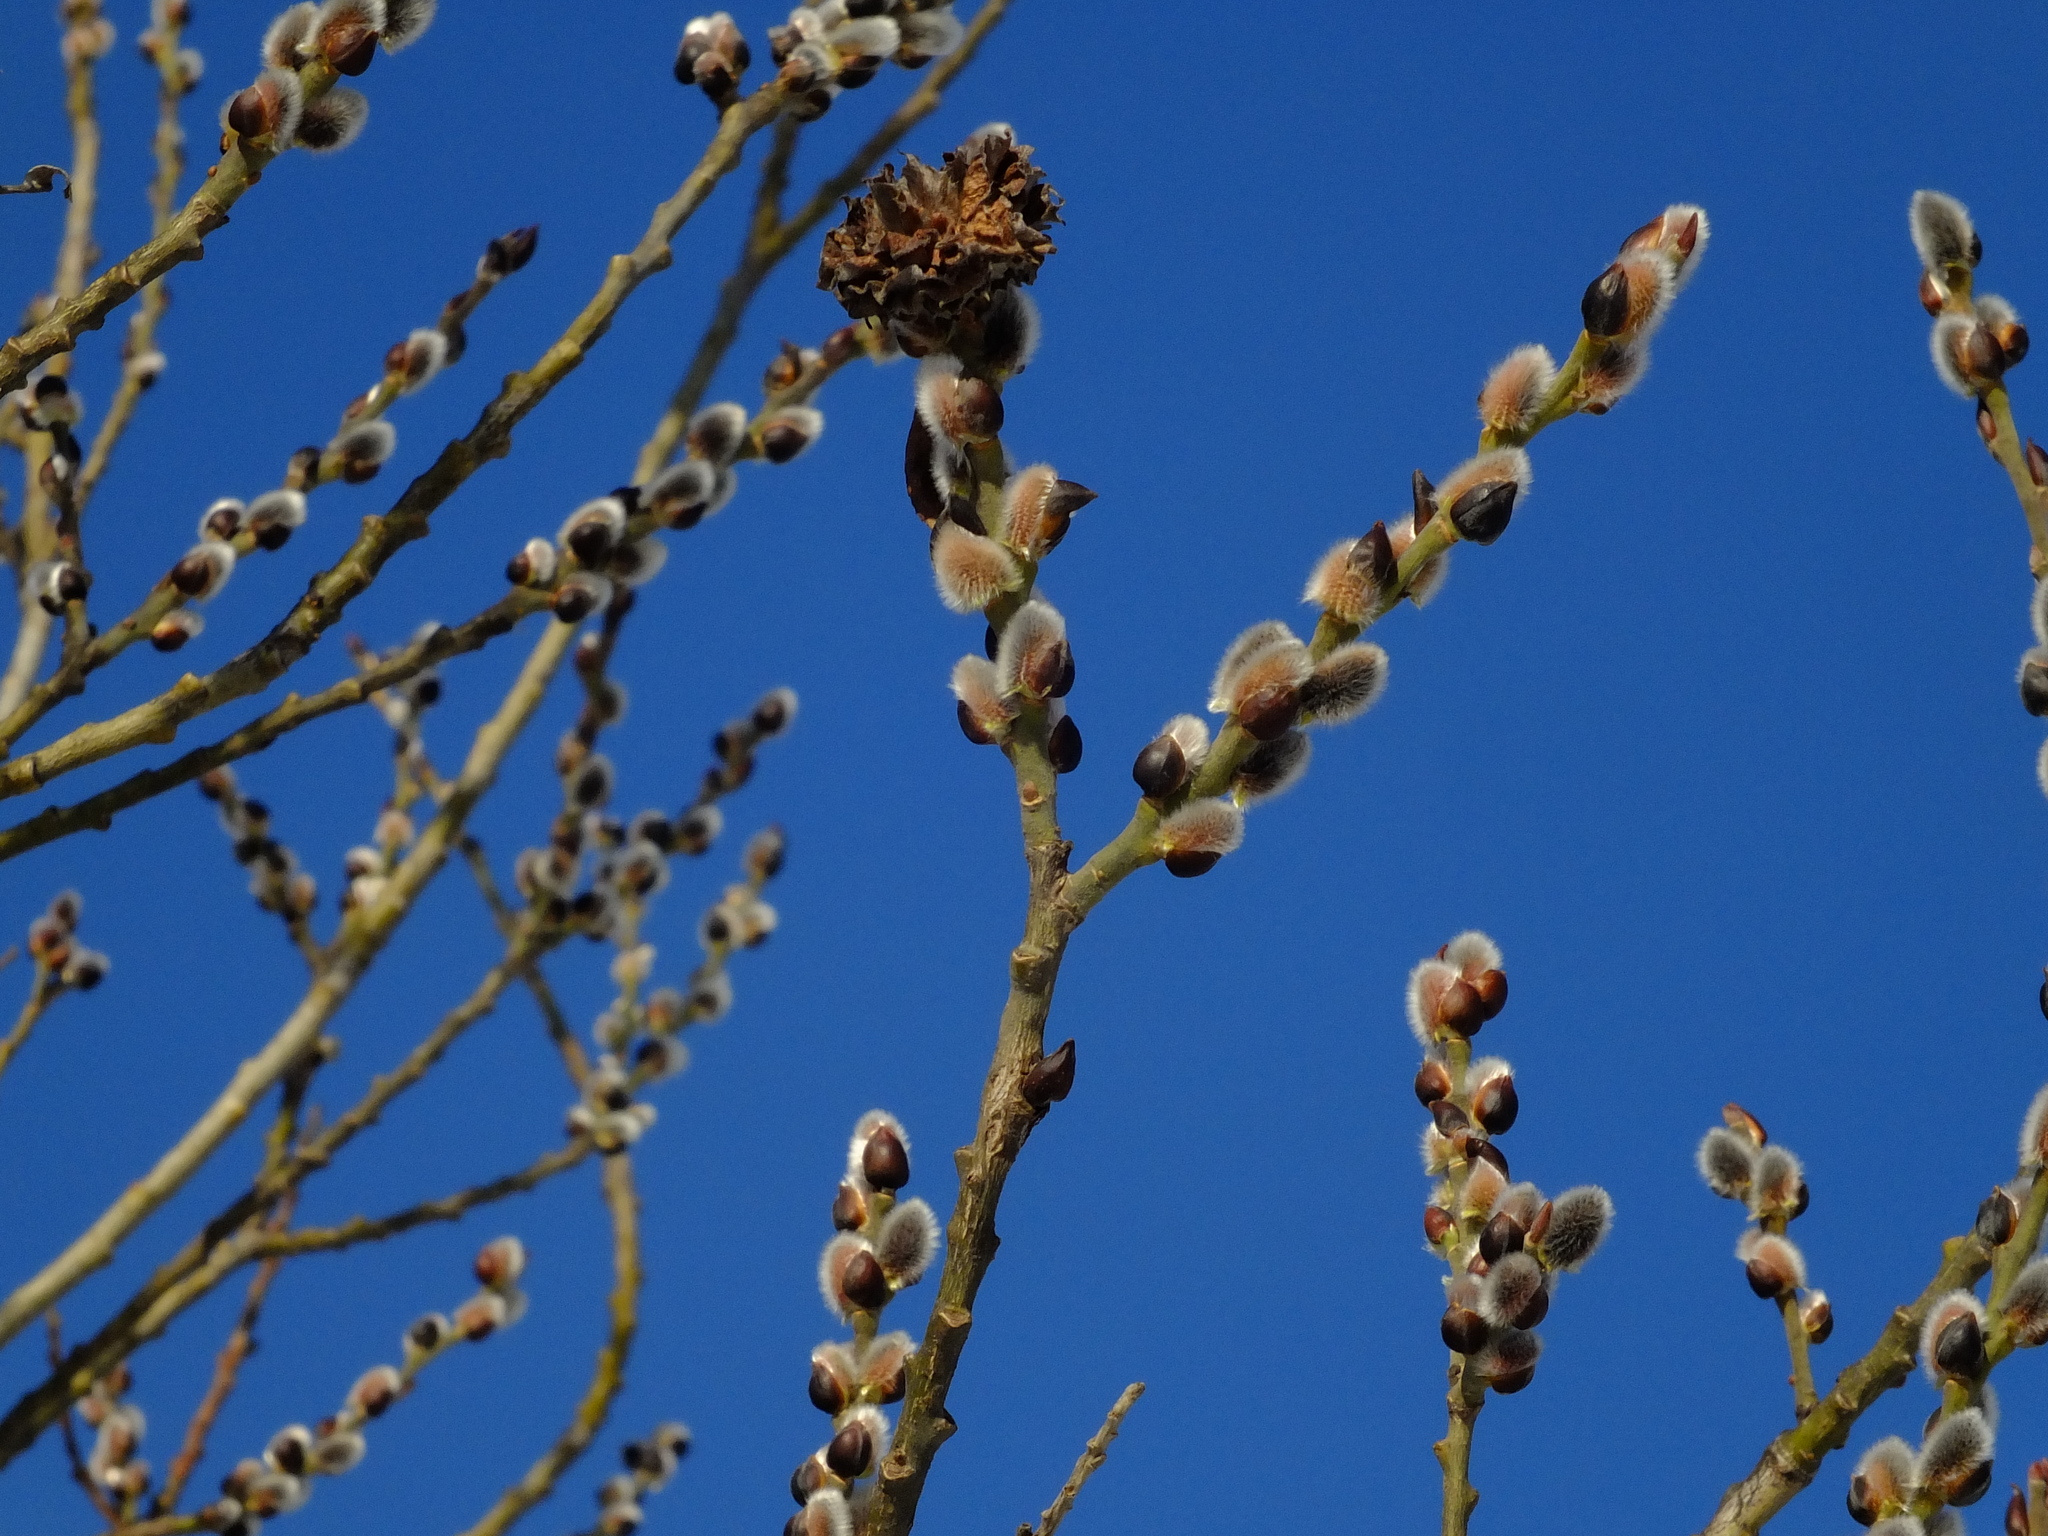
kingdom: Plantae
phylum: Tracheophyta
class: Magnoliopsida
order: Malpighiales
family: Salicaceae
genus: Salix
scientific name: Salix caprea
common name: Goat willow
